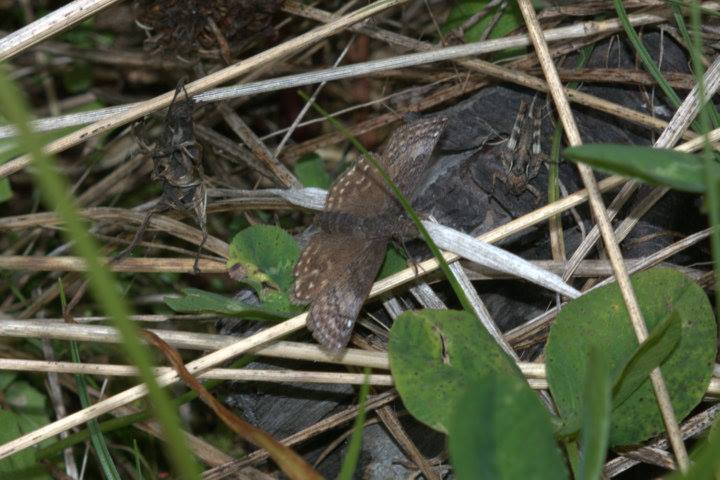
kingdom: Animalia
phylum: Arthropoda
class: Insecta
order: Lepidoptera
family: Hesperiidae
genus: Erynnis
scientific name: Erynnis icelus
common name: Dreamy duskywing
